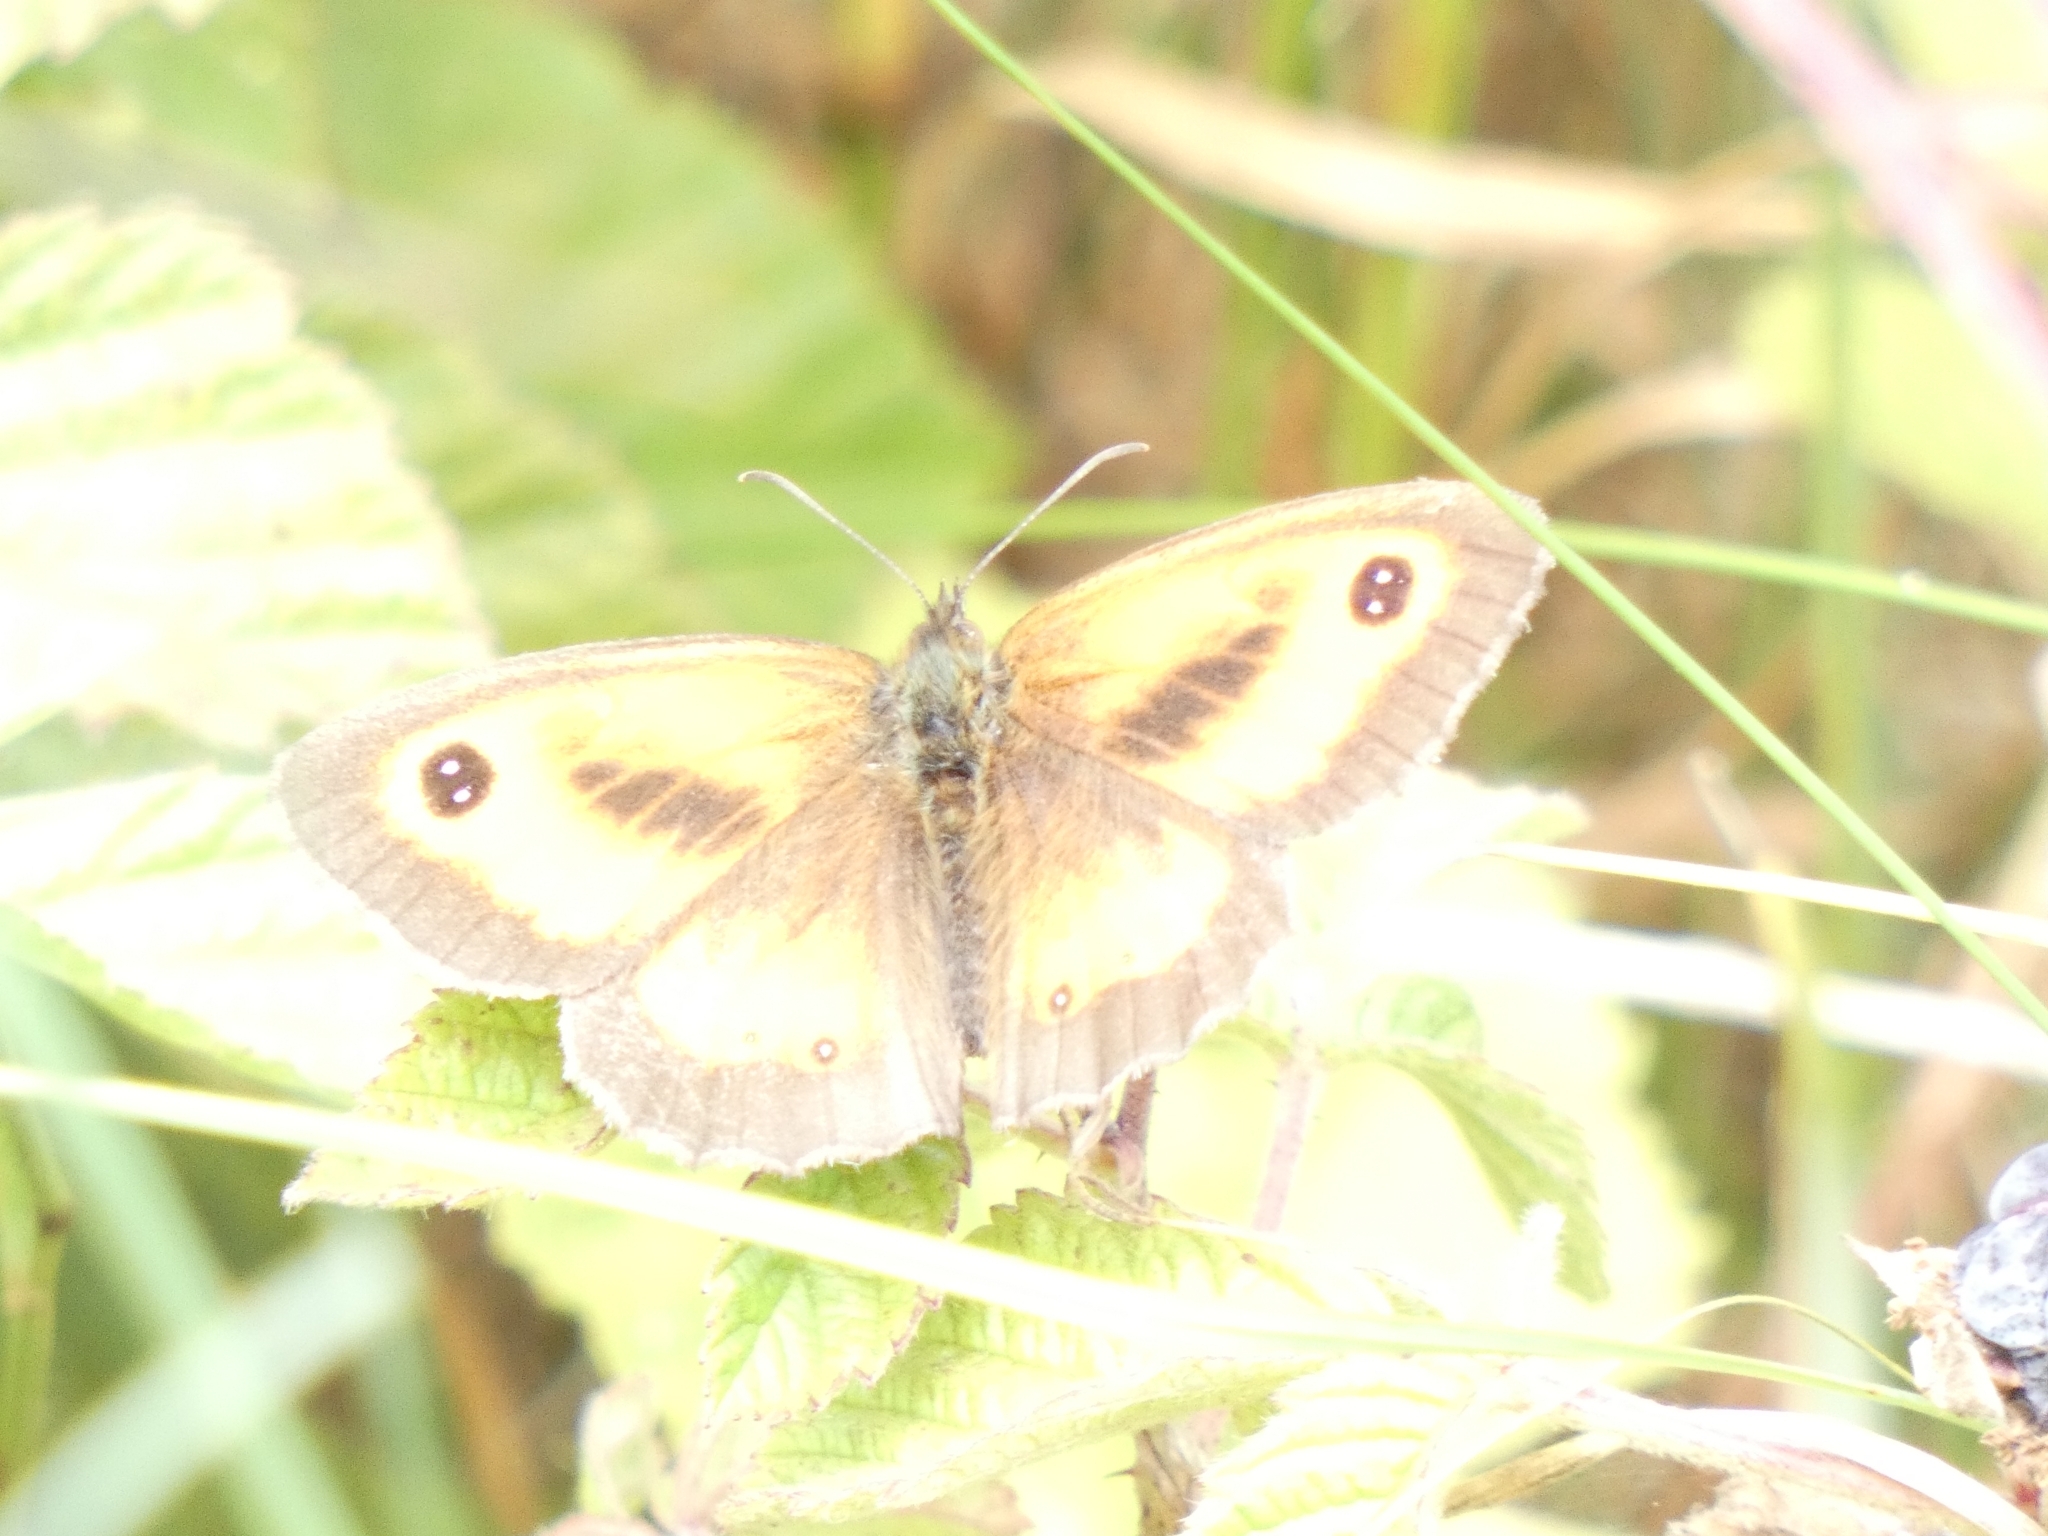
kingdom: Animalia
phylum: Arthropoda
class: Insecta
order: Lepidoptera
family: Nymphalidae
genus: Pyronia
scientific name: Pyronia tithonus
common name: Gatekeeper
